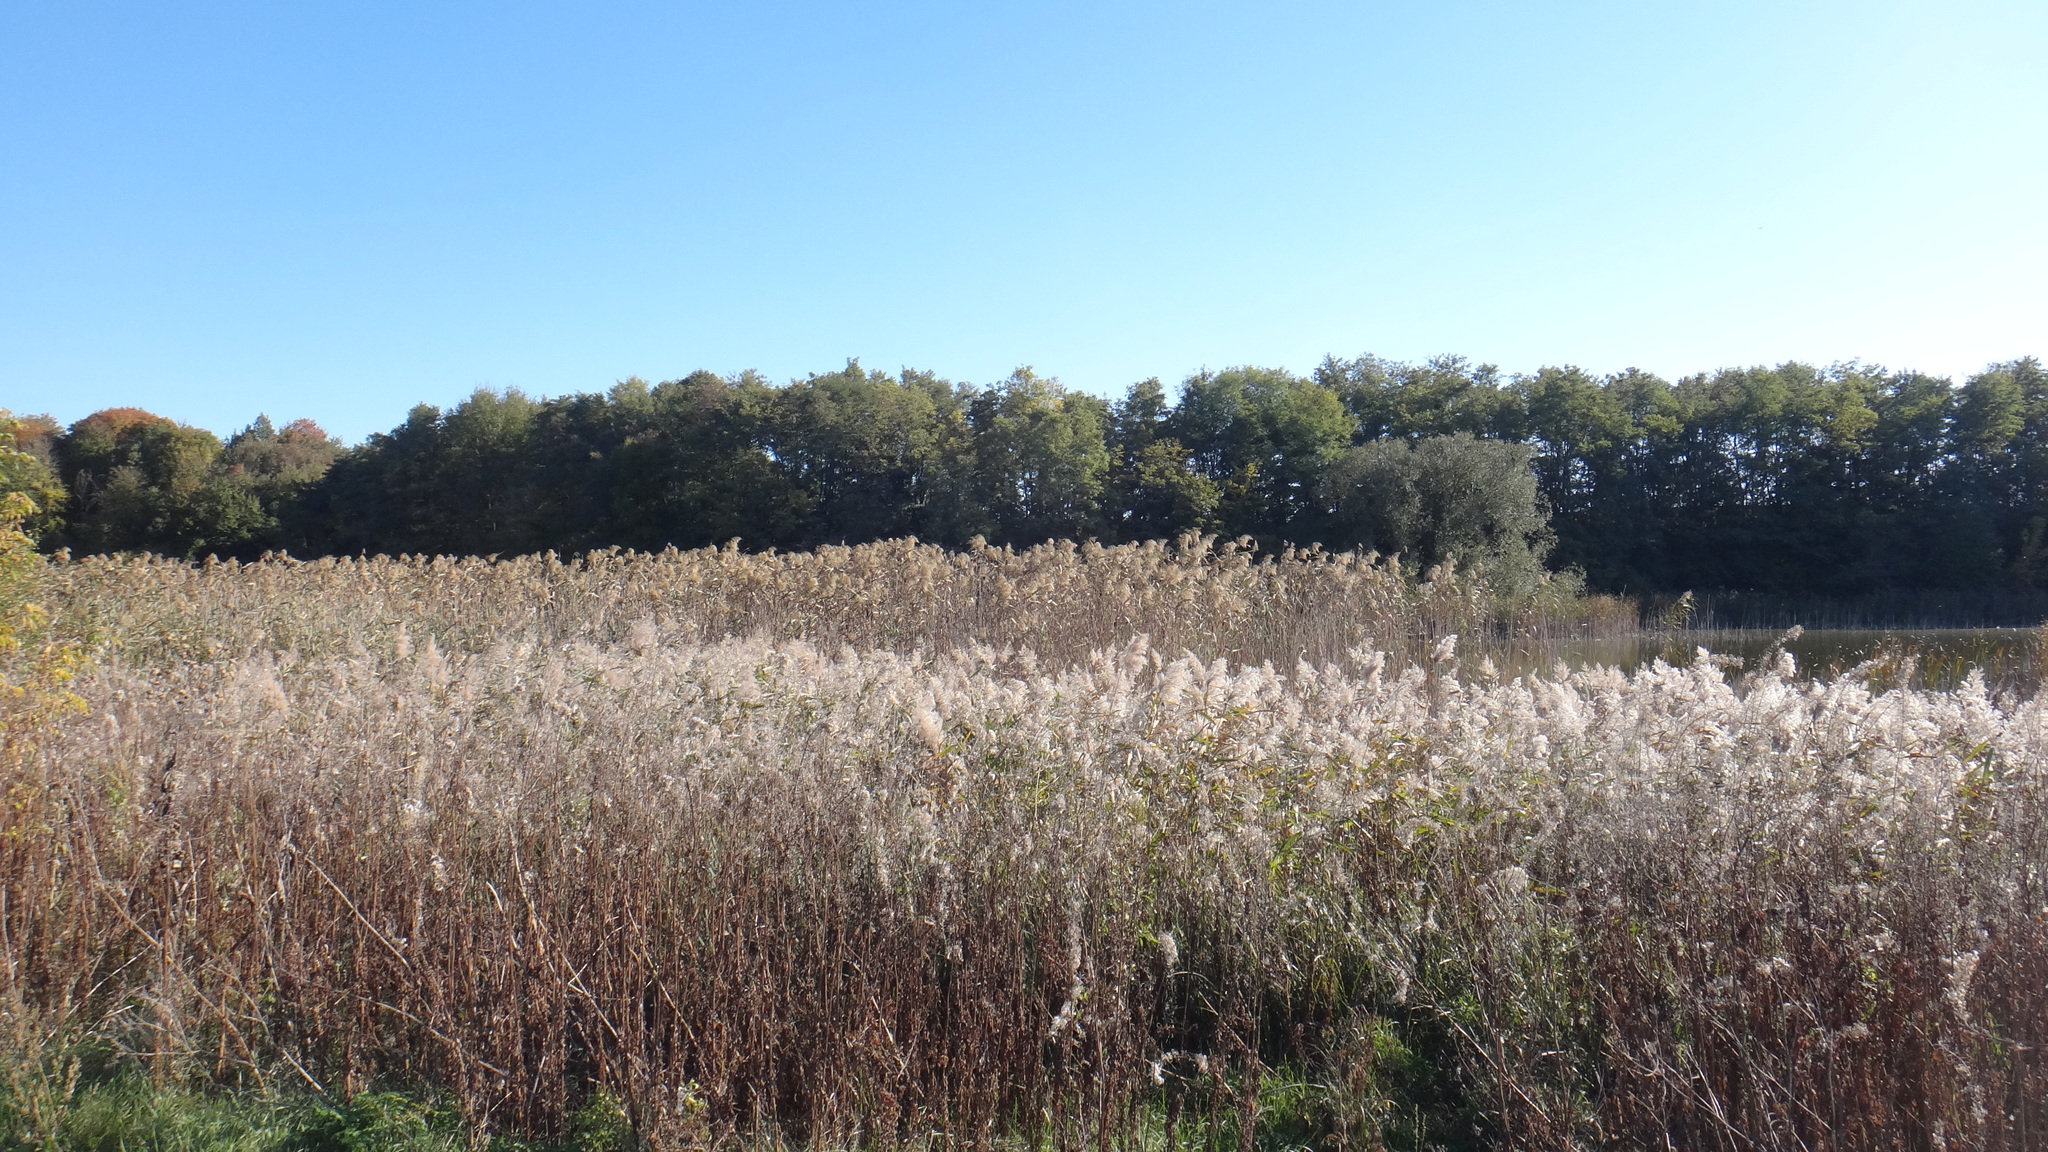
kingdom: Plantae
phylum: Tracheophyta
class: Liliopsida
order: Poales
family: Poaceae
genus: Phragmites
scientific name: Phragmites australis
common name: Common reed
